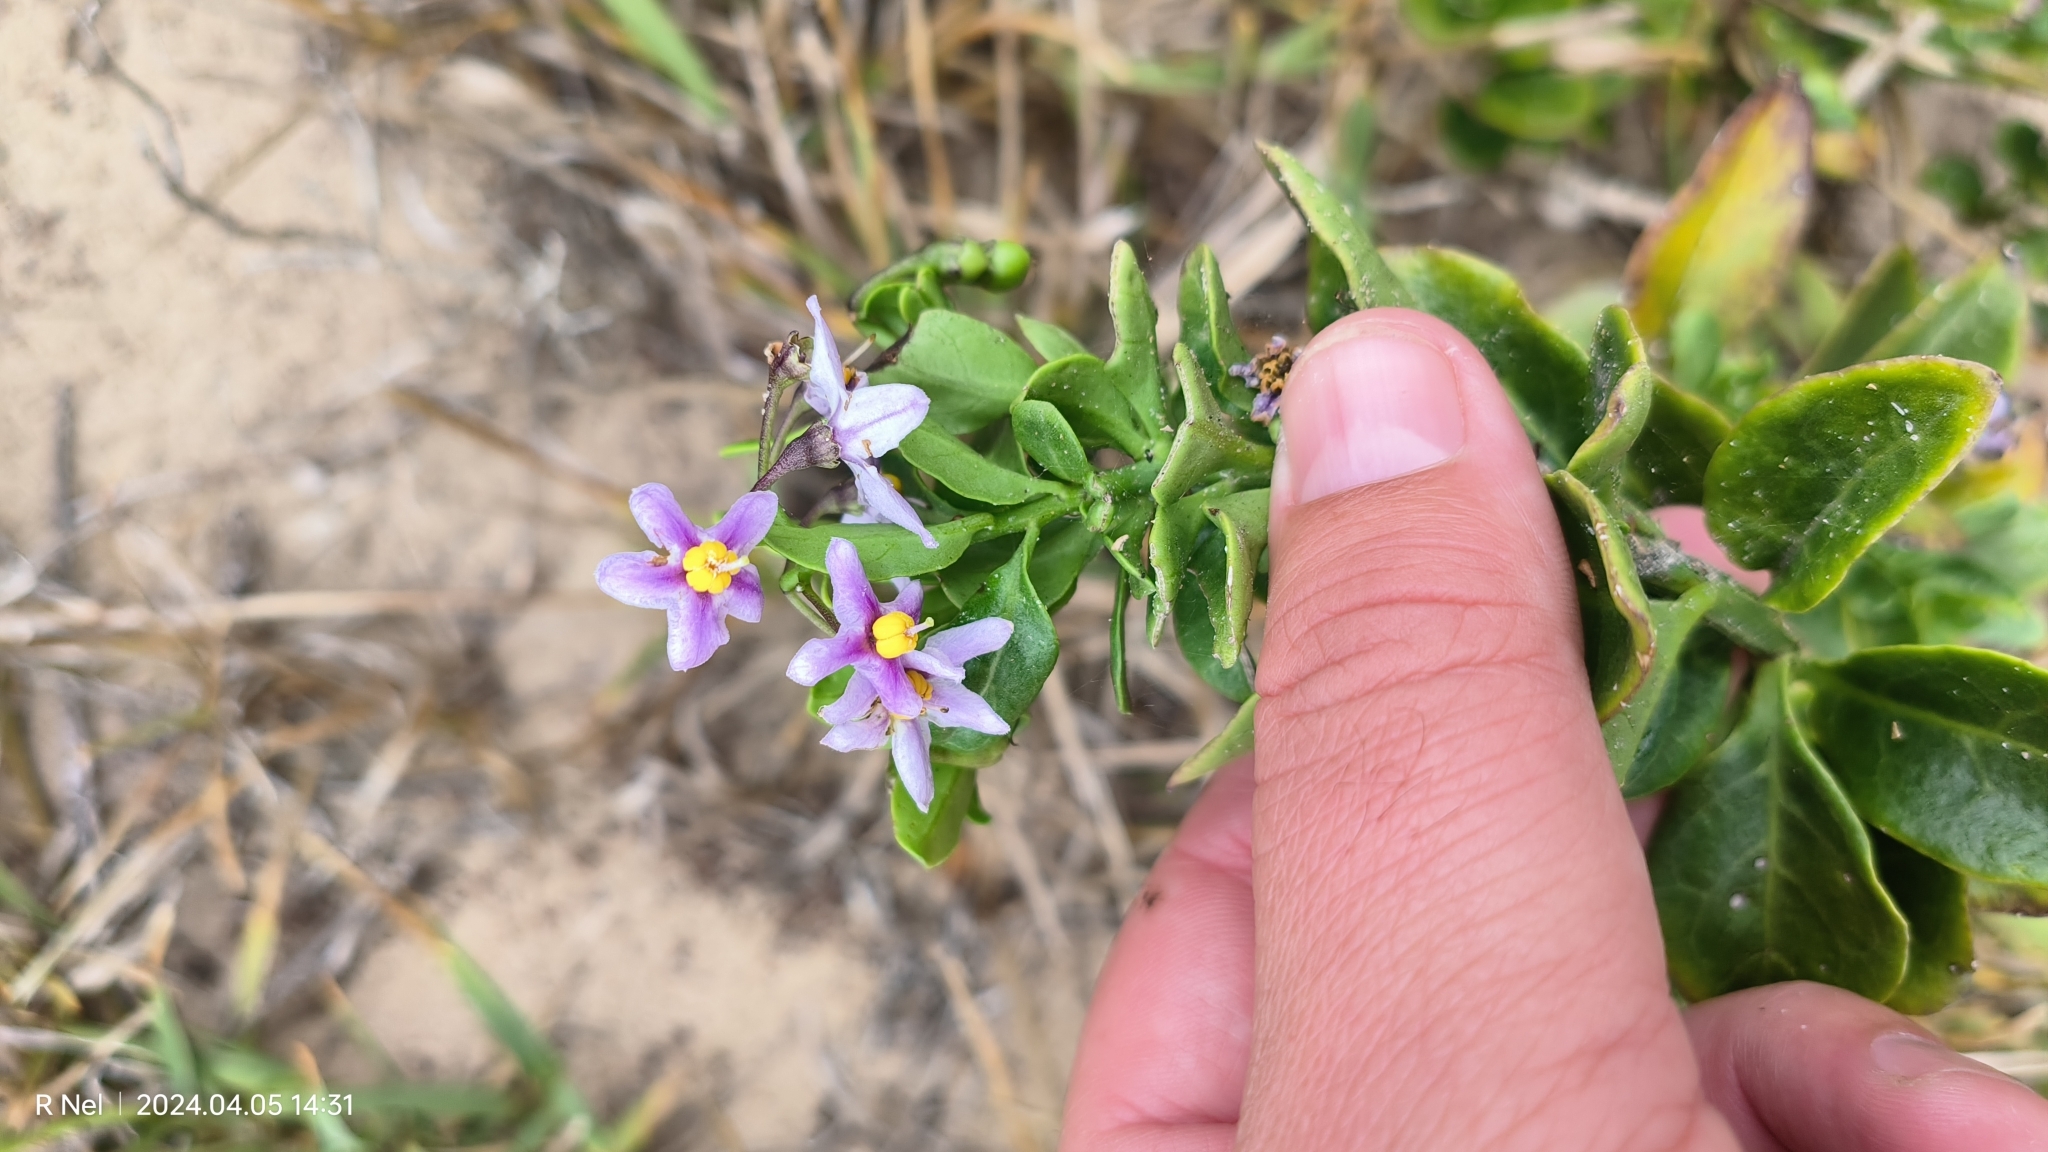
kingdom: Plantae
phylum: Tracheophyta
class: Magnoliopsida
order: Solanales
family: Solanaceae
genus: Solanum
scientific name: Solanum africanum
